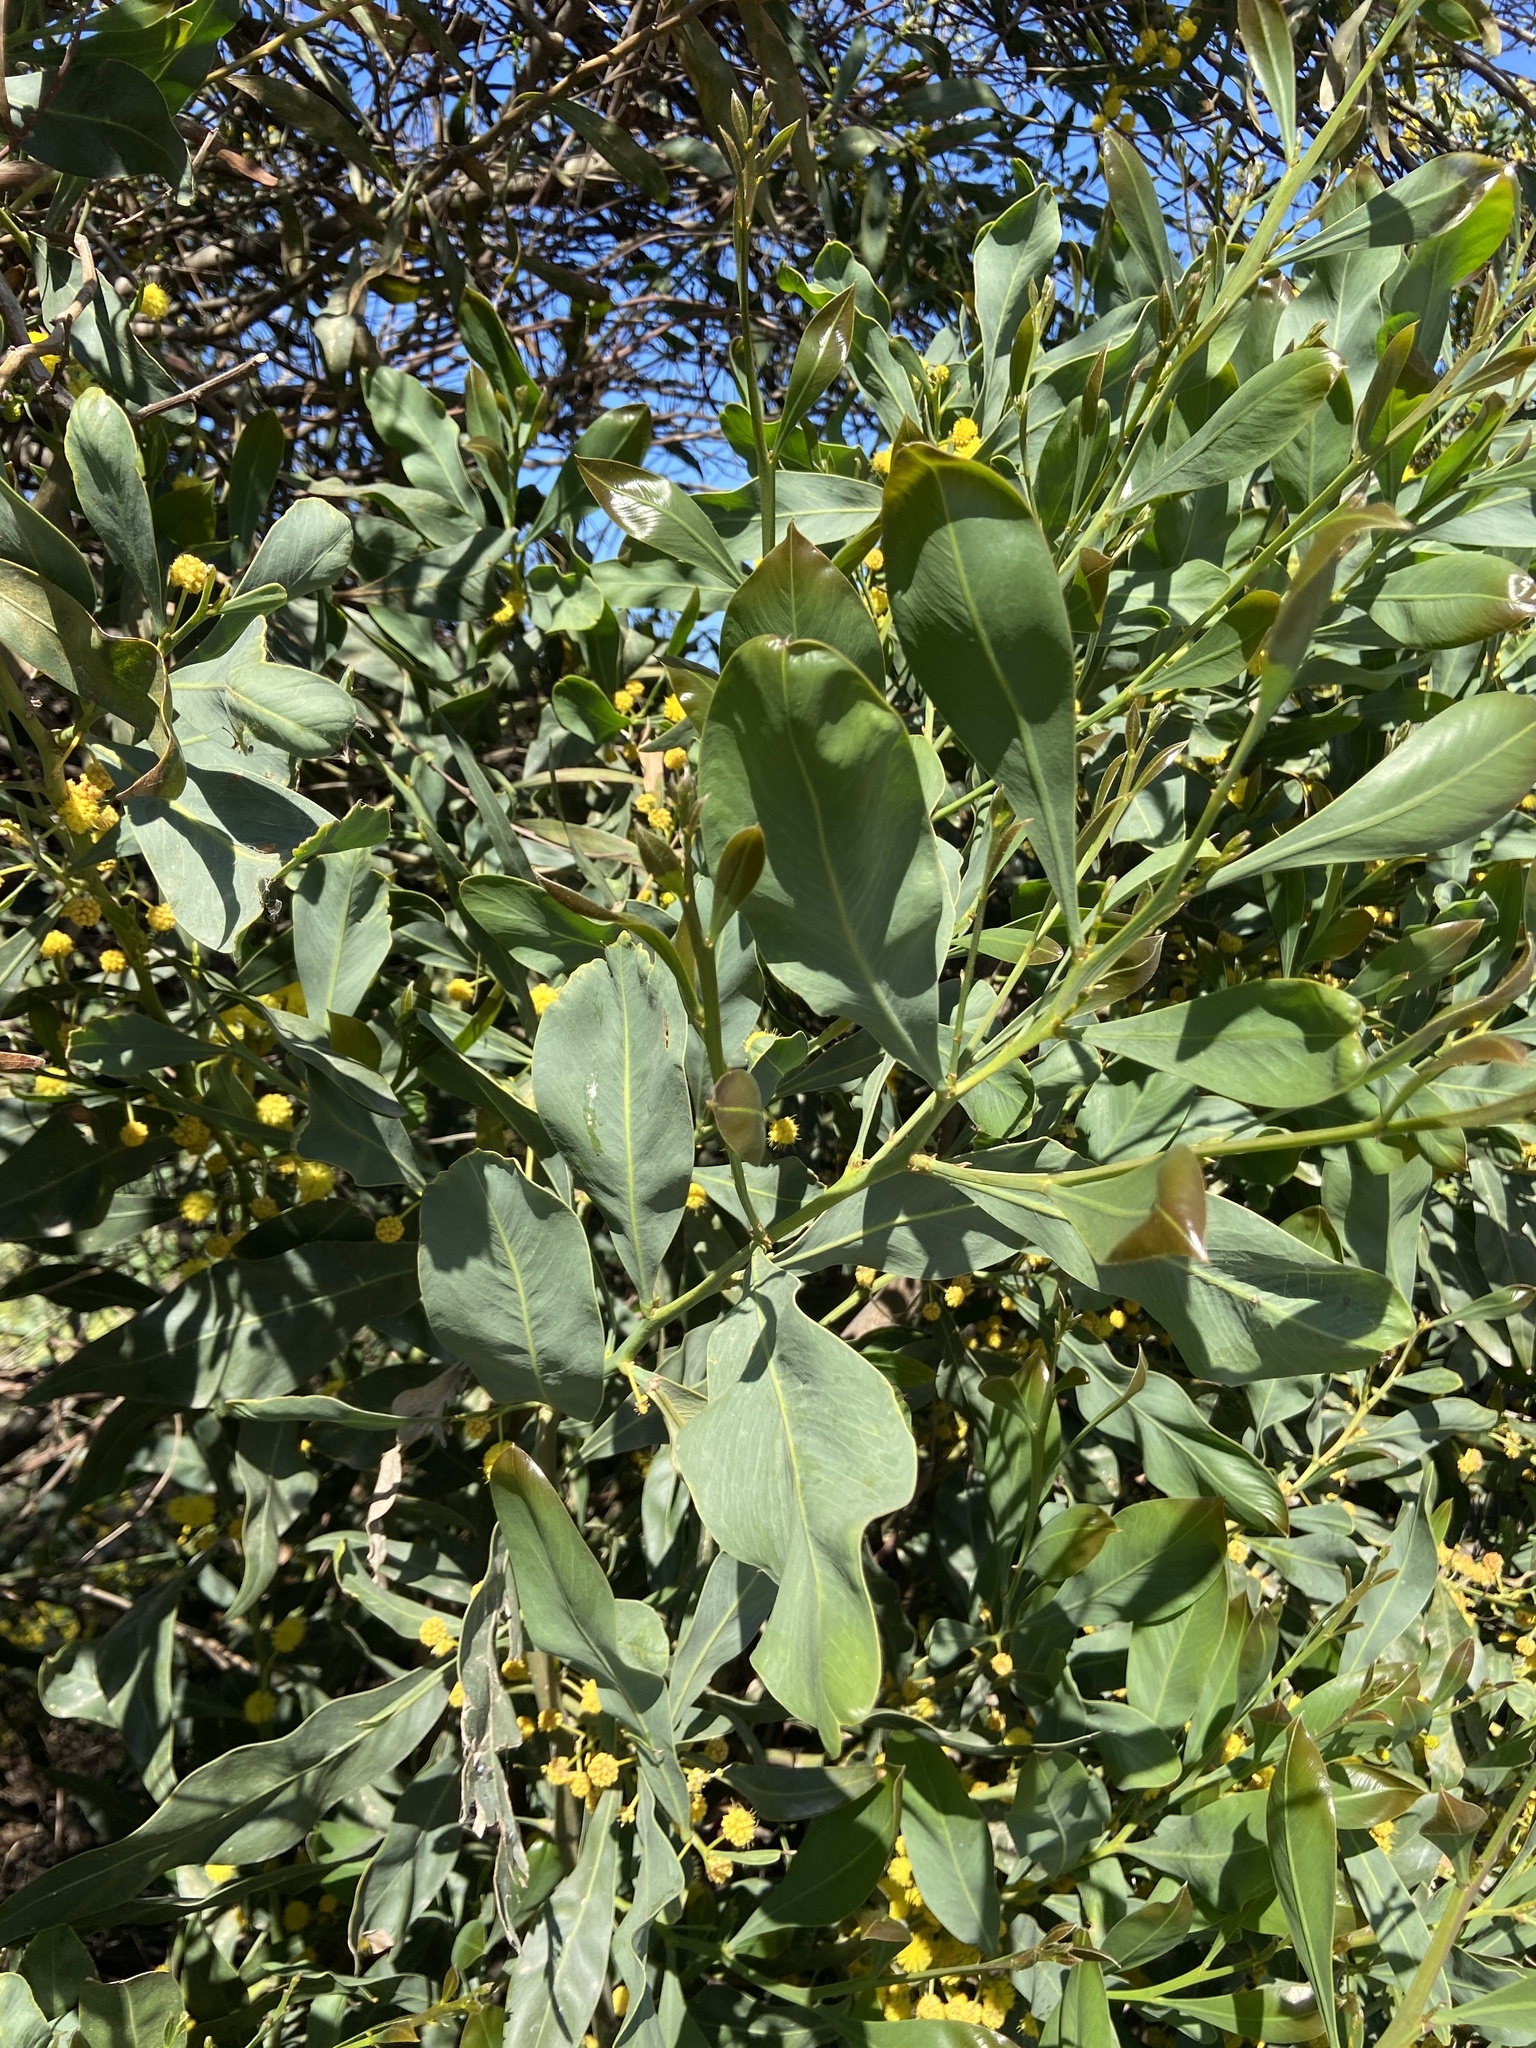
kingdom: Plantae
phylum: Tracheophyta
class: Magnoliopsida
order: Fabales
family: Fabaceae
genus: Acacia
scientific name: Acacia saligna
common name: Orange wattle
